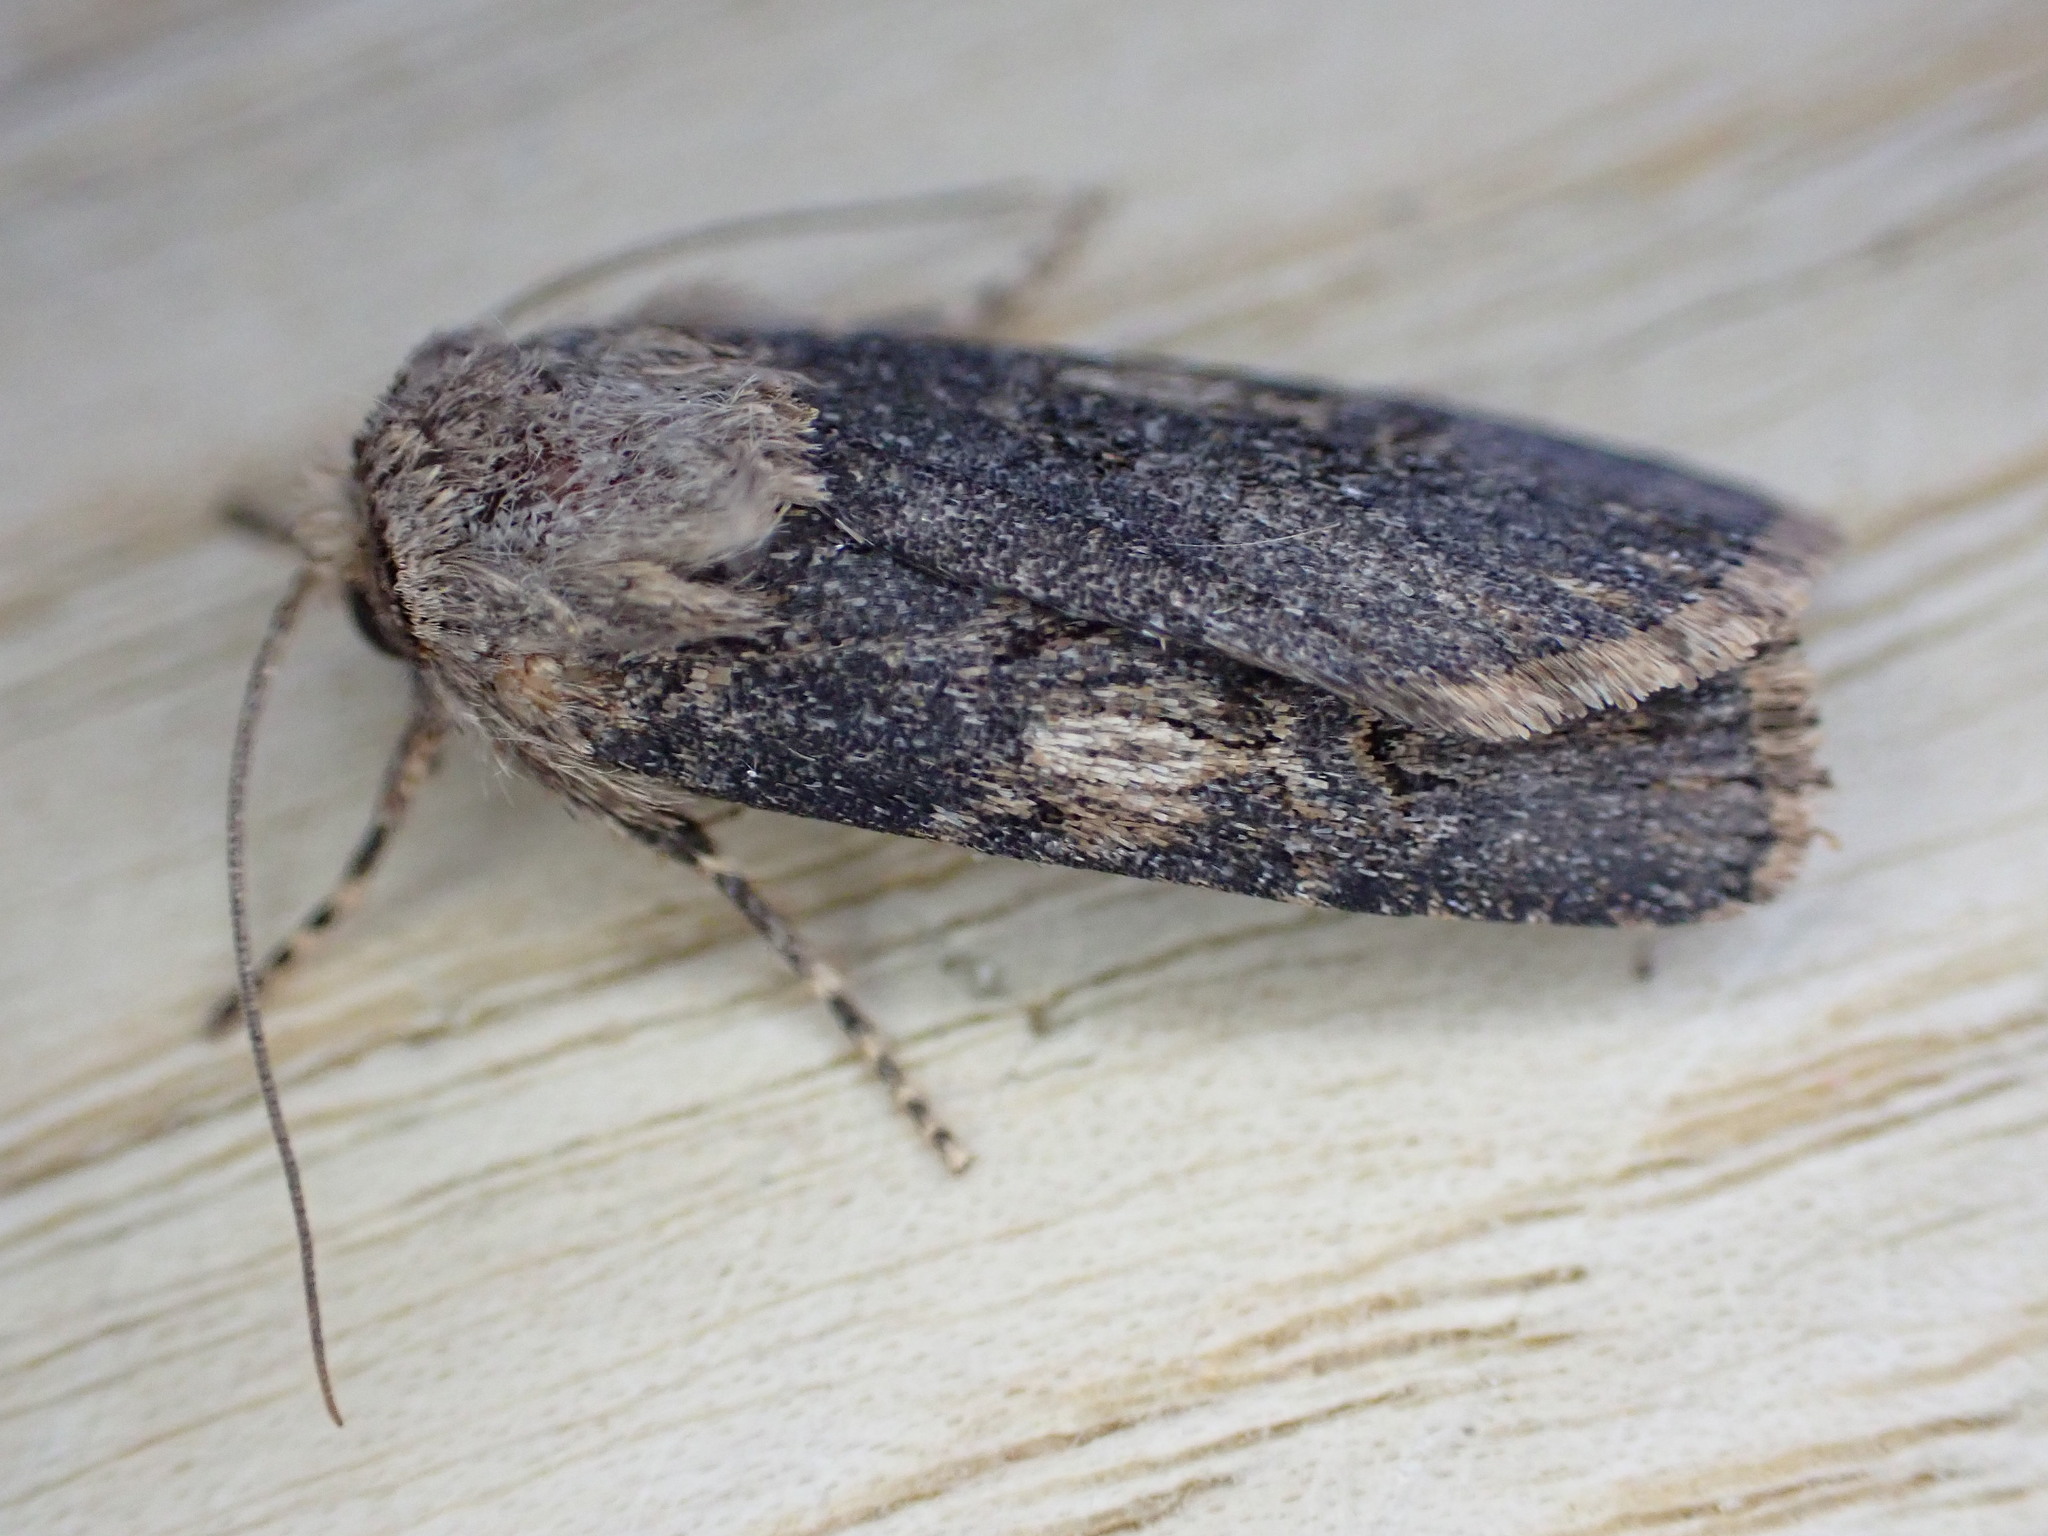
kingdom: Animalia
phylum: Arthropoda
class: Insecta
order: Lepidoptera
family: Noctuidae
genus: Agrotis
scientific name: Agrotis puta
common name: Shuttle-shaped dart
